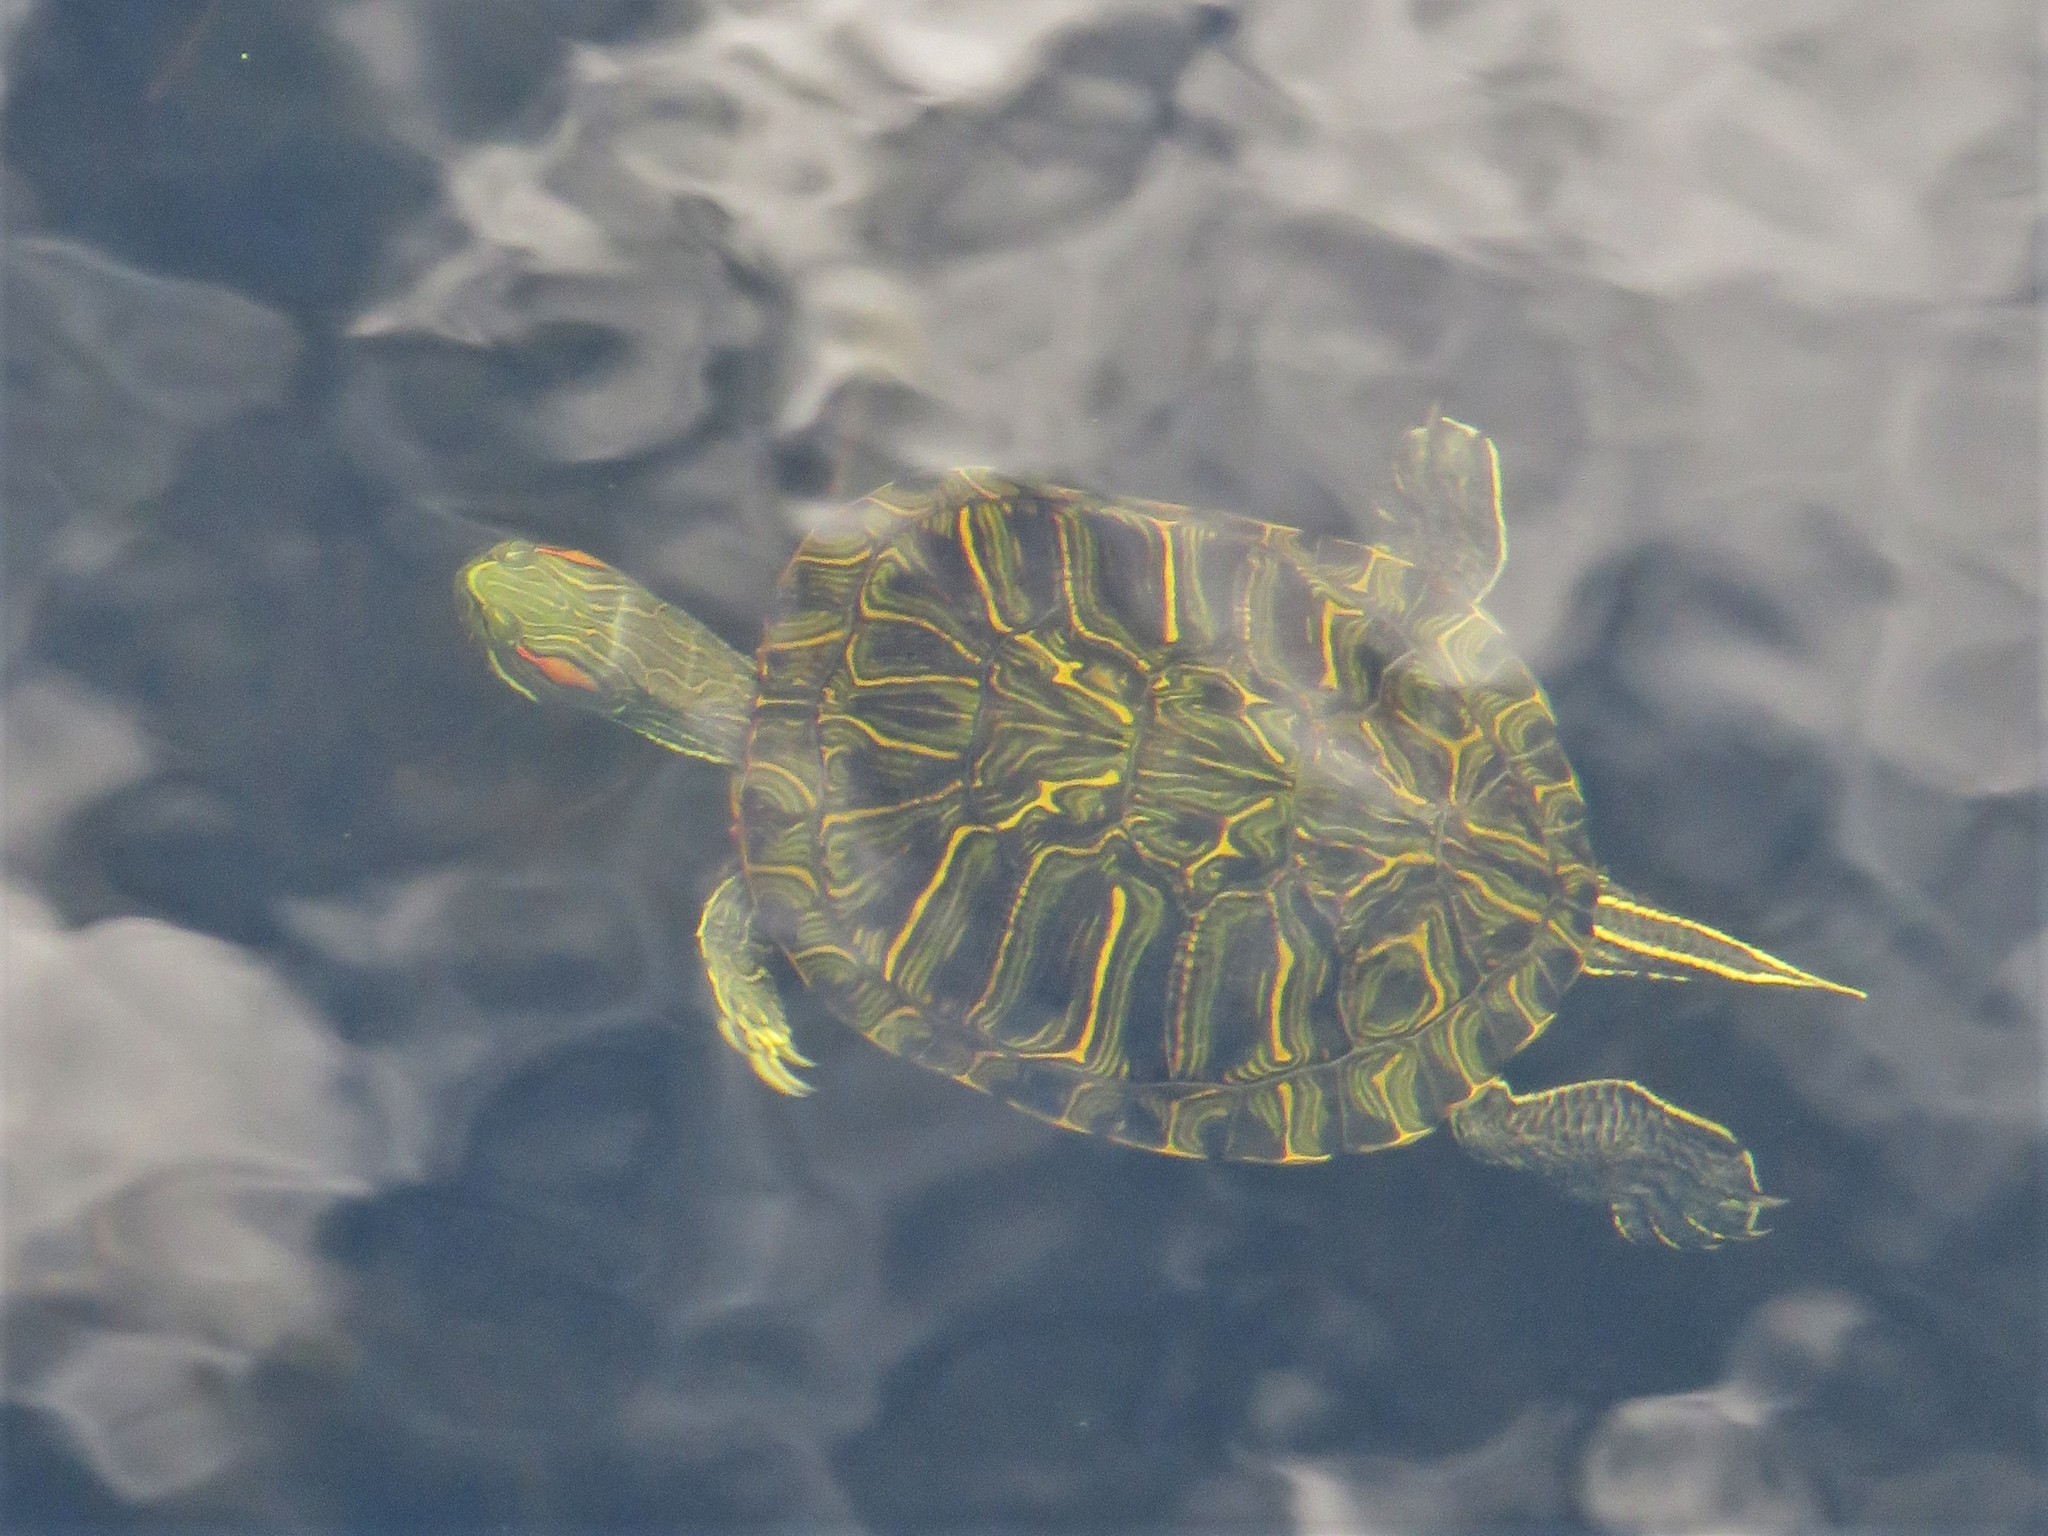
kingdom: Animalia
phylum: Chordata
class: Testudines
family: Emydidae
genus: Trachemys
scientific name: Trachemys scripta
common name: Slider
